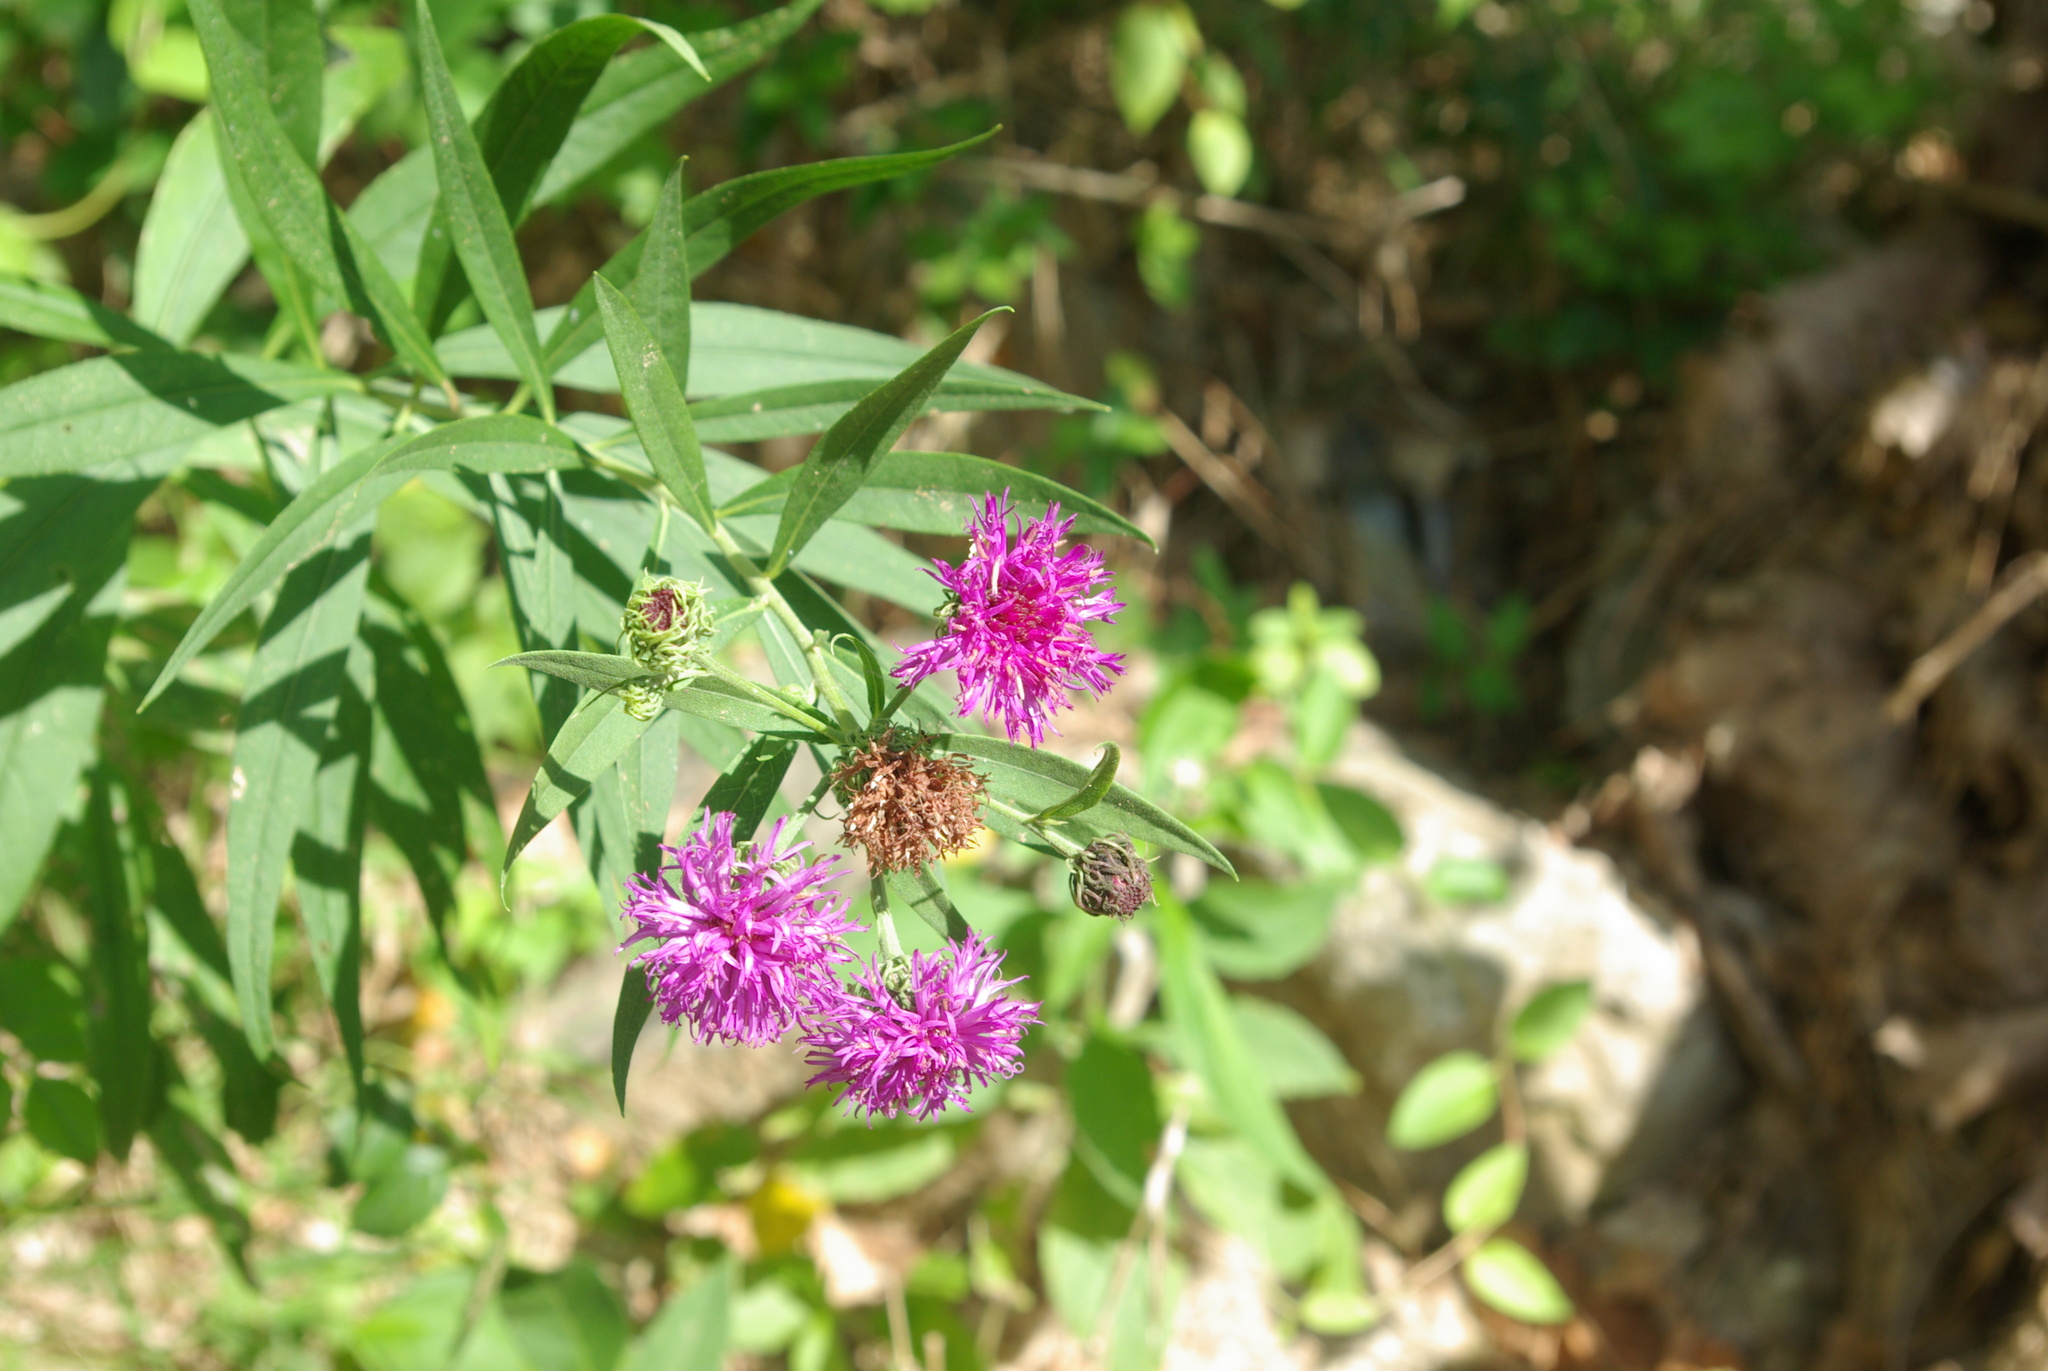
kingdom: Plantae
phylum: Tracheophyta
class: Magnoliopsida
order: Asterales
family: Asteraceae
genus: Vernonia
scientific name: Vernonia arkansana
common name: Ozark ironweed
